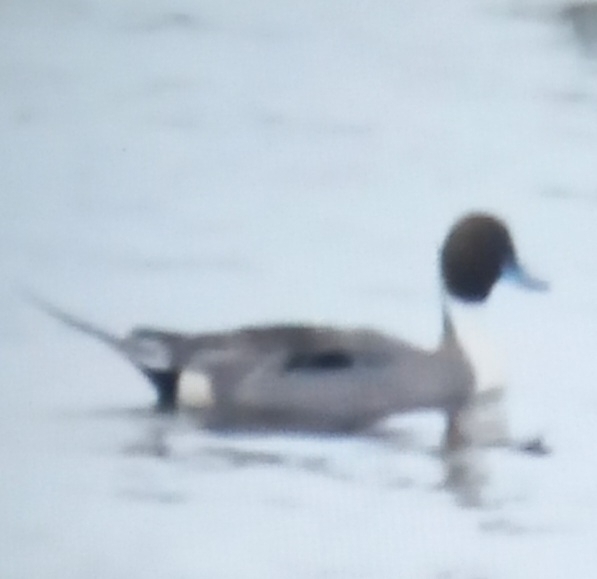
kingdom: Animalia
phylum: Chordata
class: Aves
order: Anseriformes
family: Anatidae
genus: Anas
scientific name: Anas acuta
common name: Northern pintail
